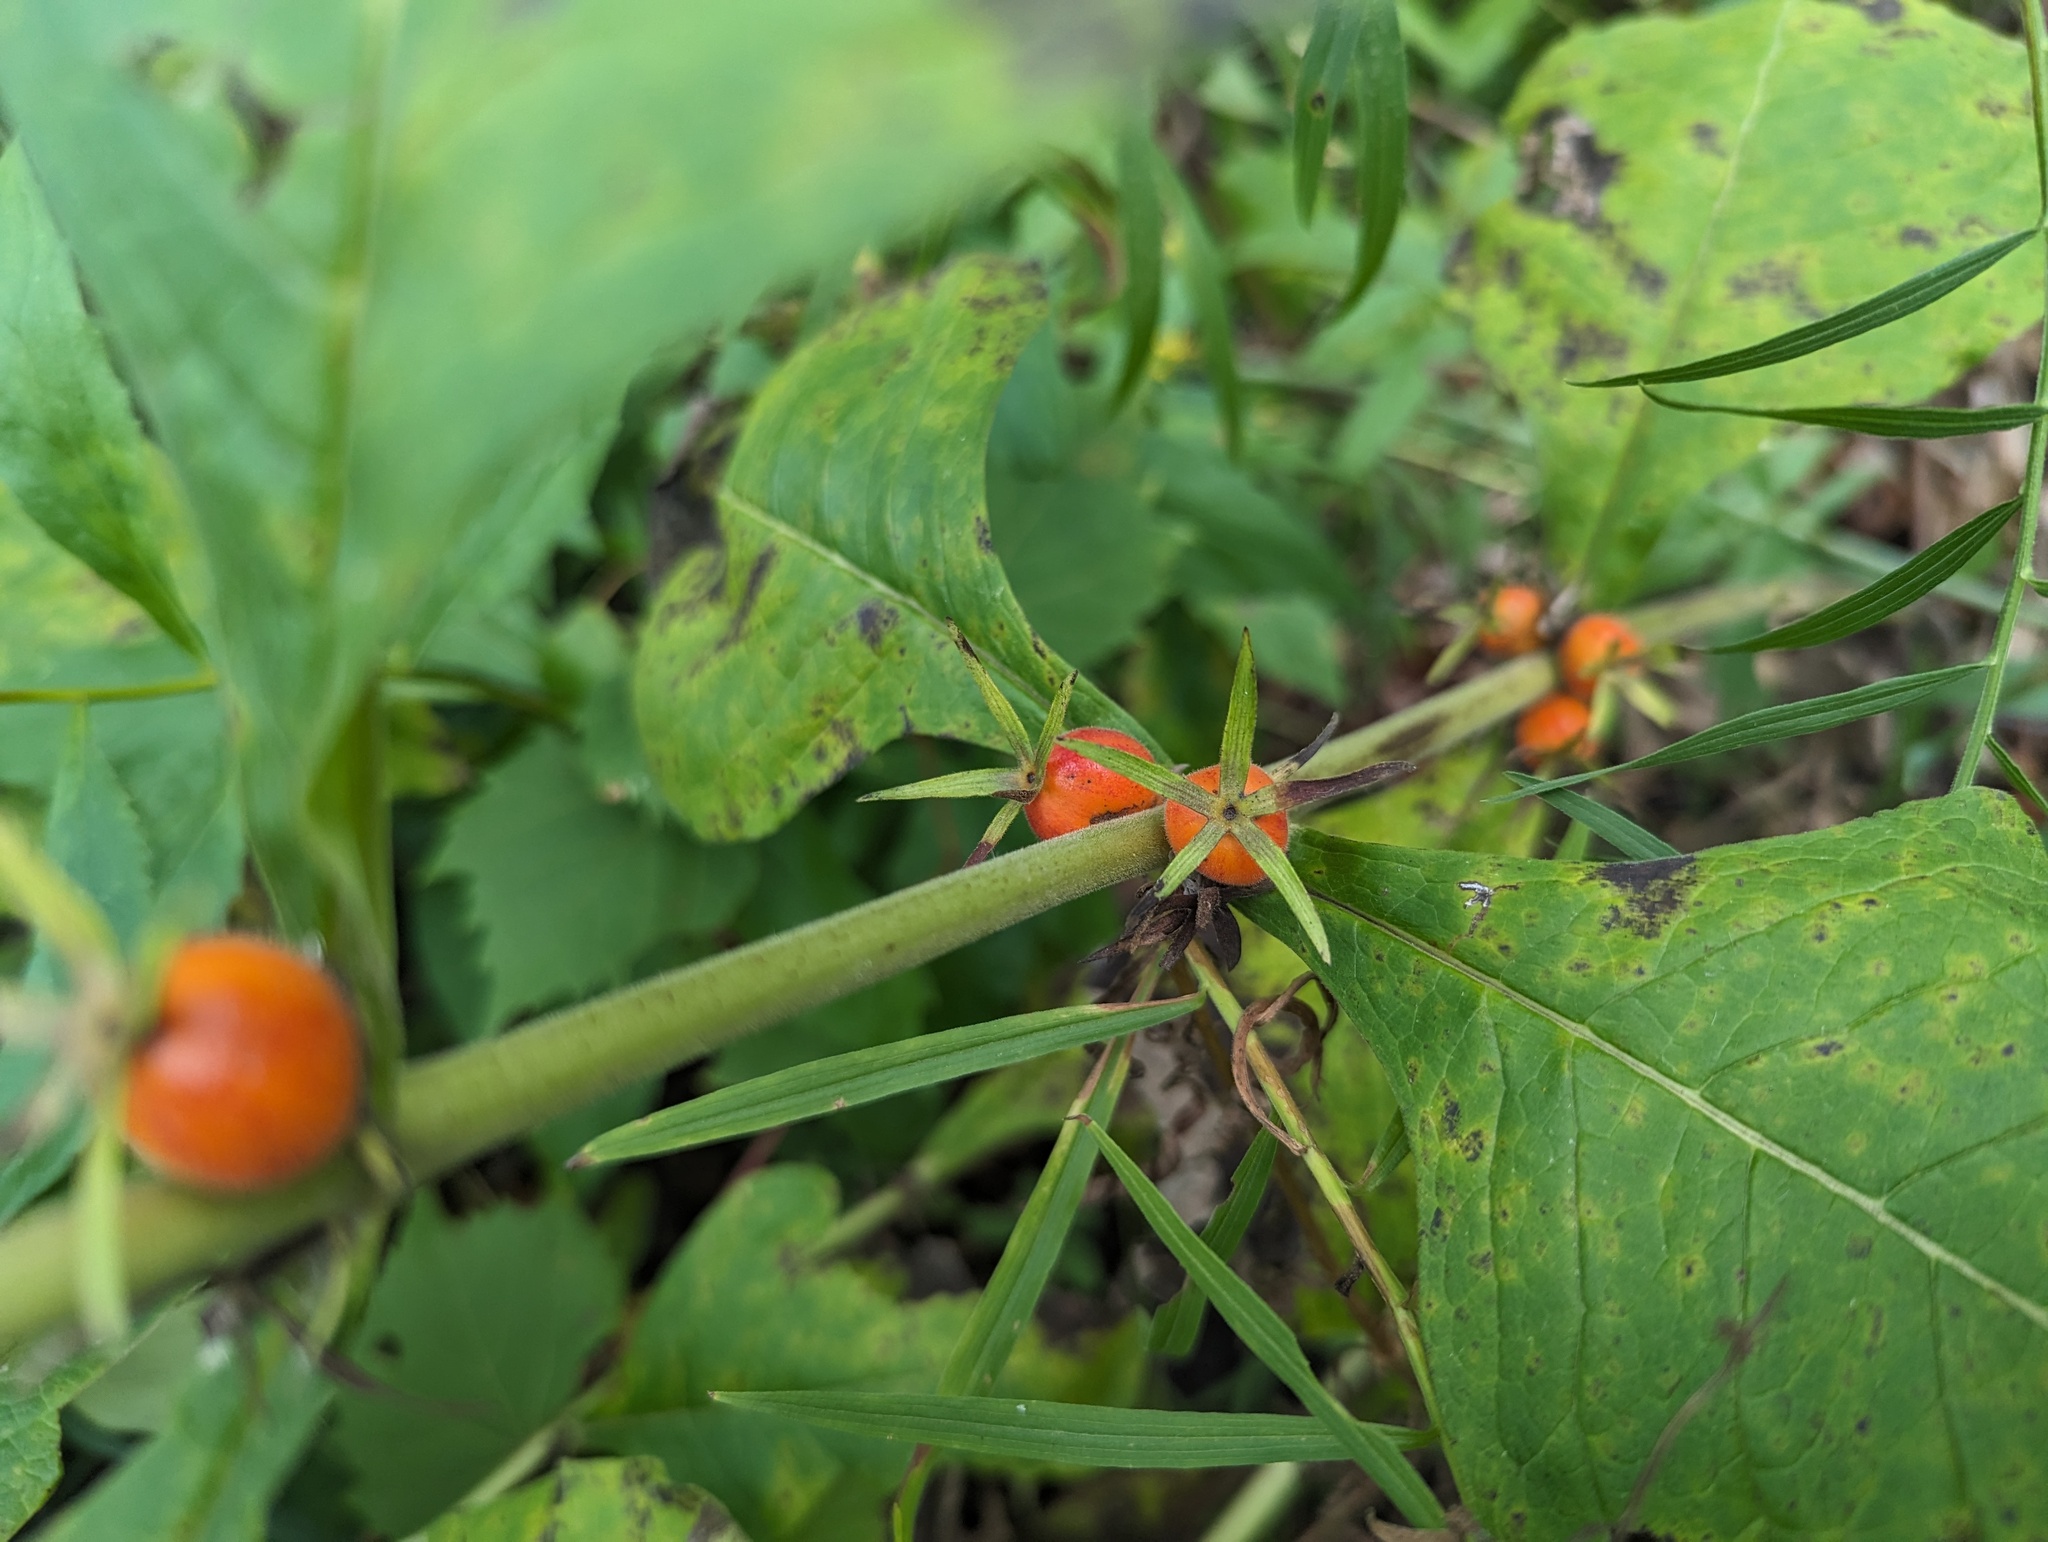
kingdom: Plantae
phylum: Tracheophyta
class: Magnoliopsida
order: Dipsacales
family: Caprifoliaceae
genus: Triosteum
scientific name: Triosteum aurantiacum
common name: Coffee tinker's-weed
